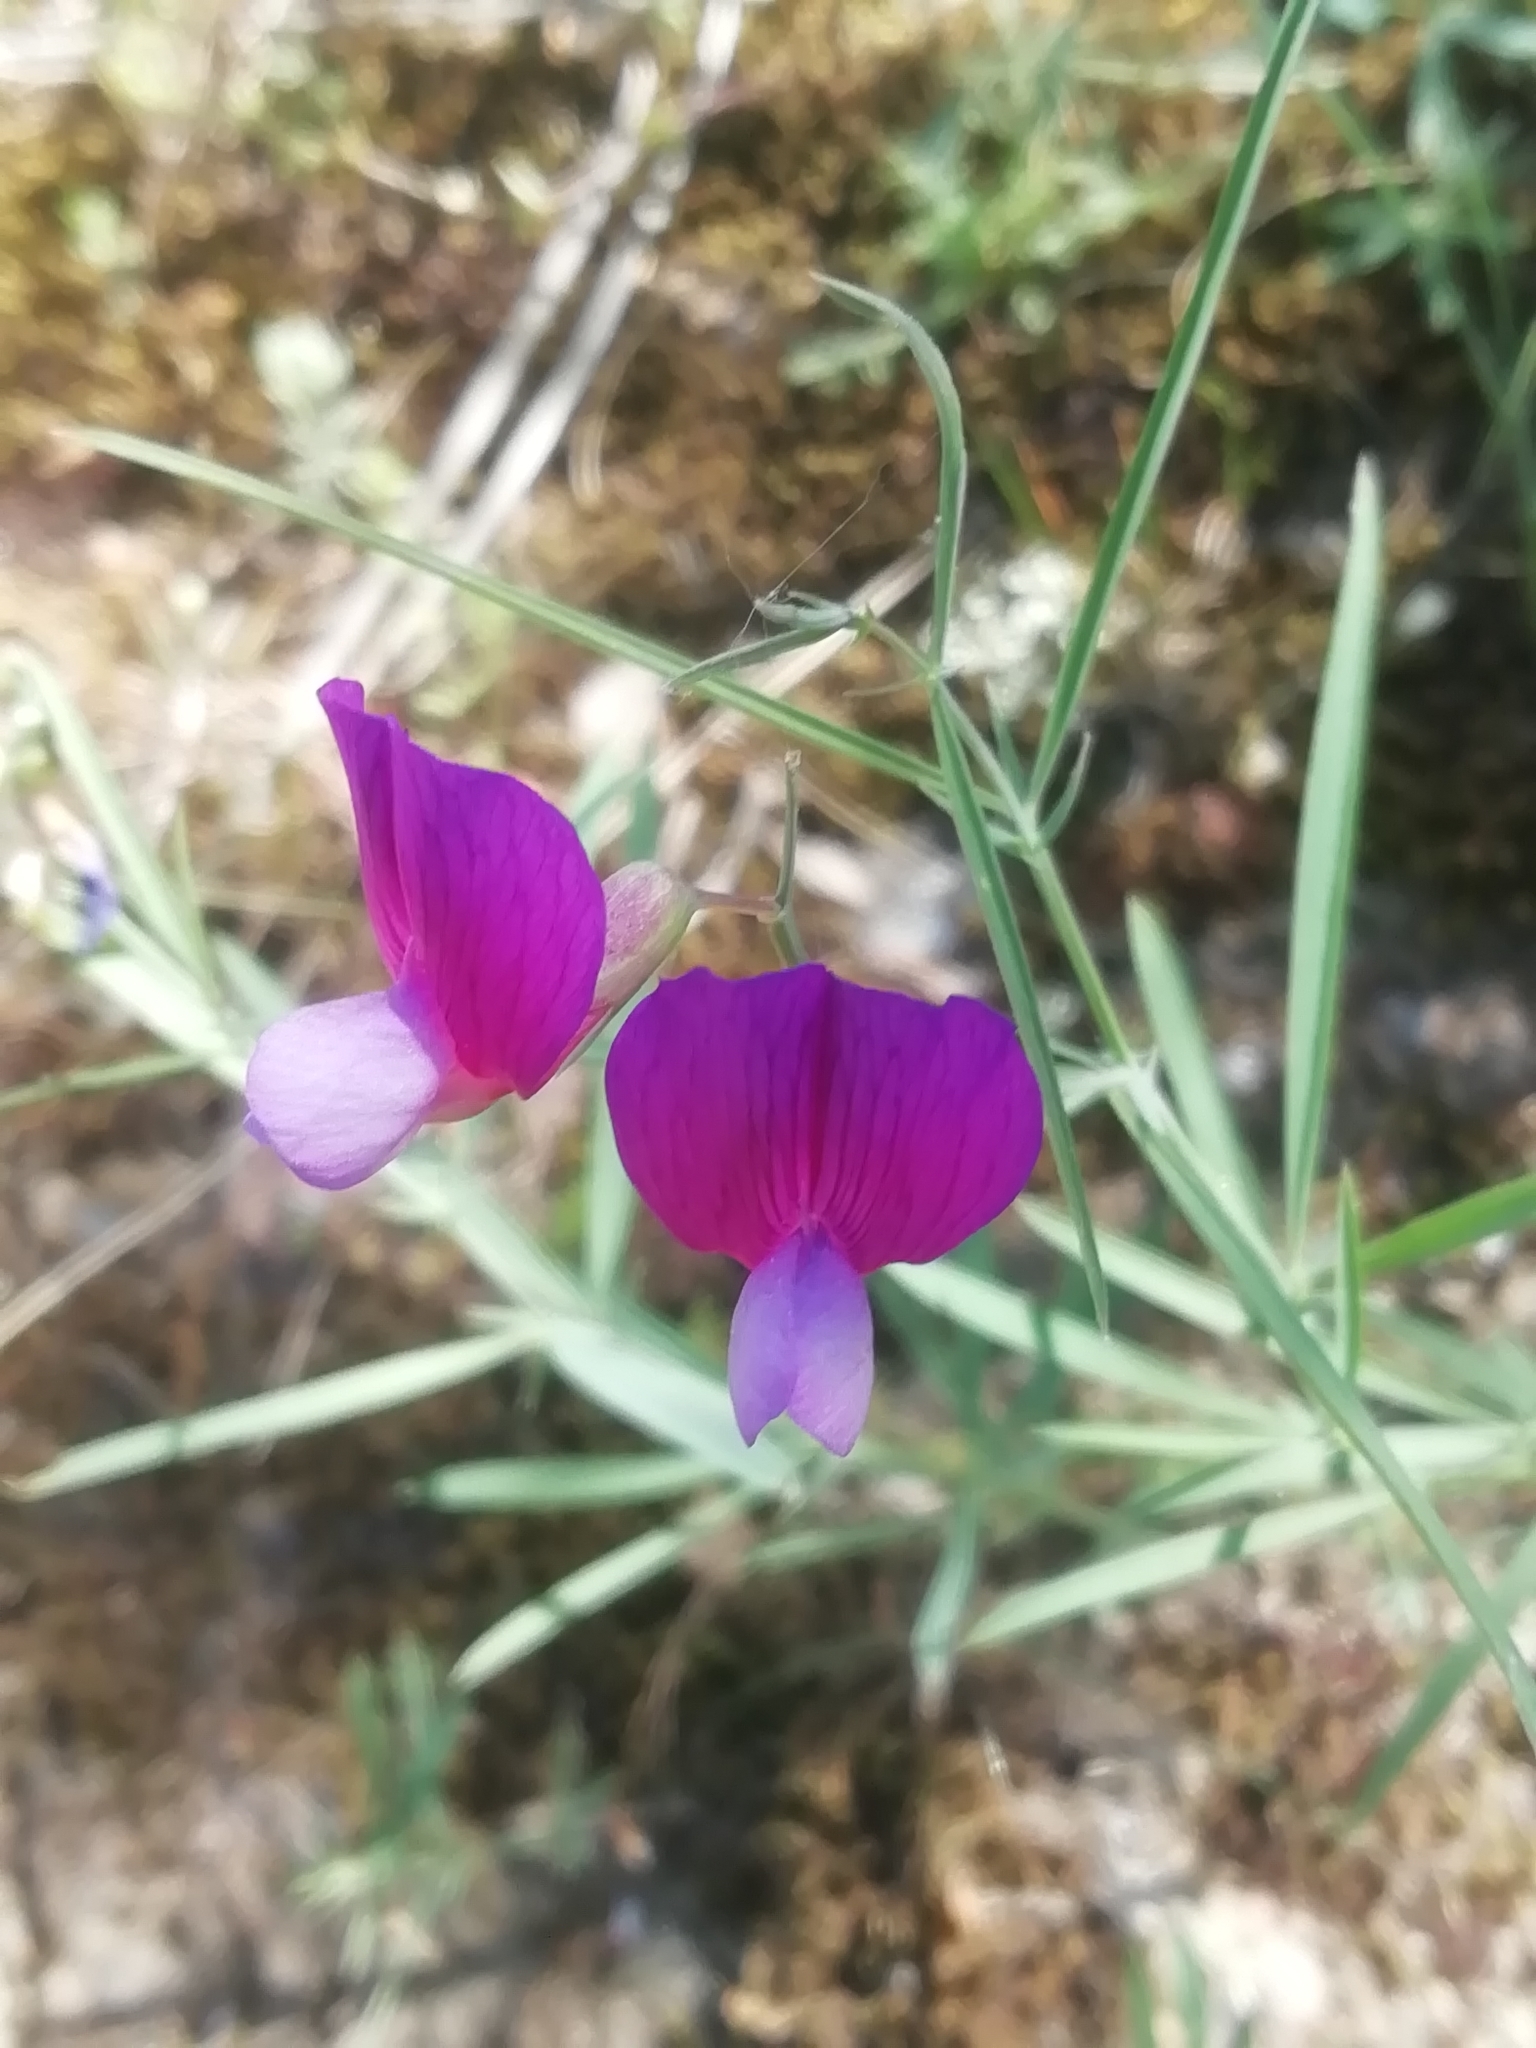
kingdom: Plantae
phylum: Tracheophyta
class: Magnoliopsida
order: Fabales
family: Fabaceae
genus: Lathyrus
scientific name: Lathyrus digitatus
